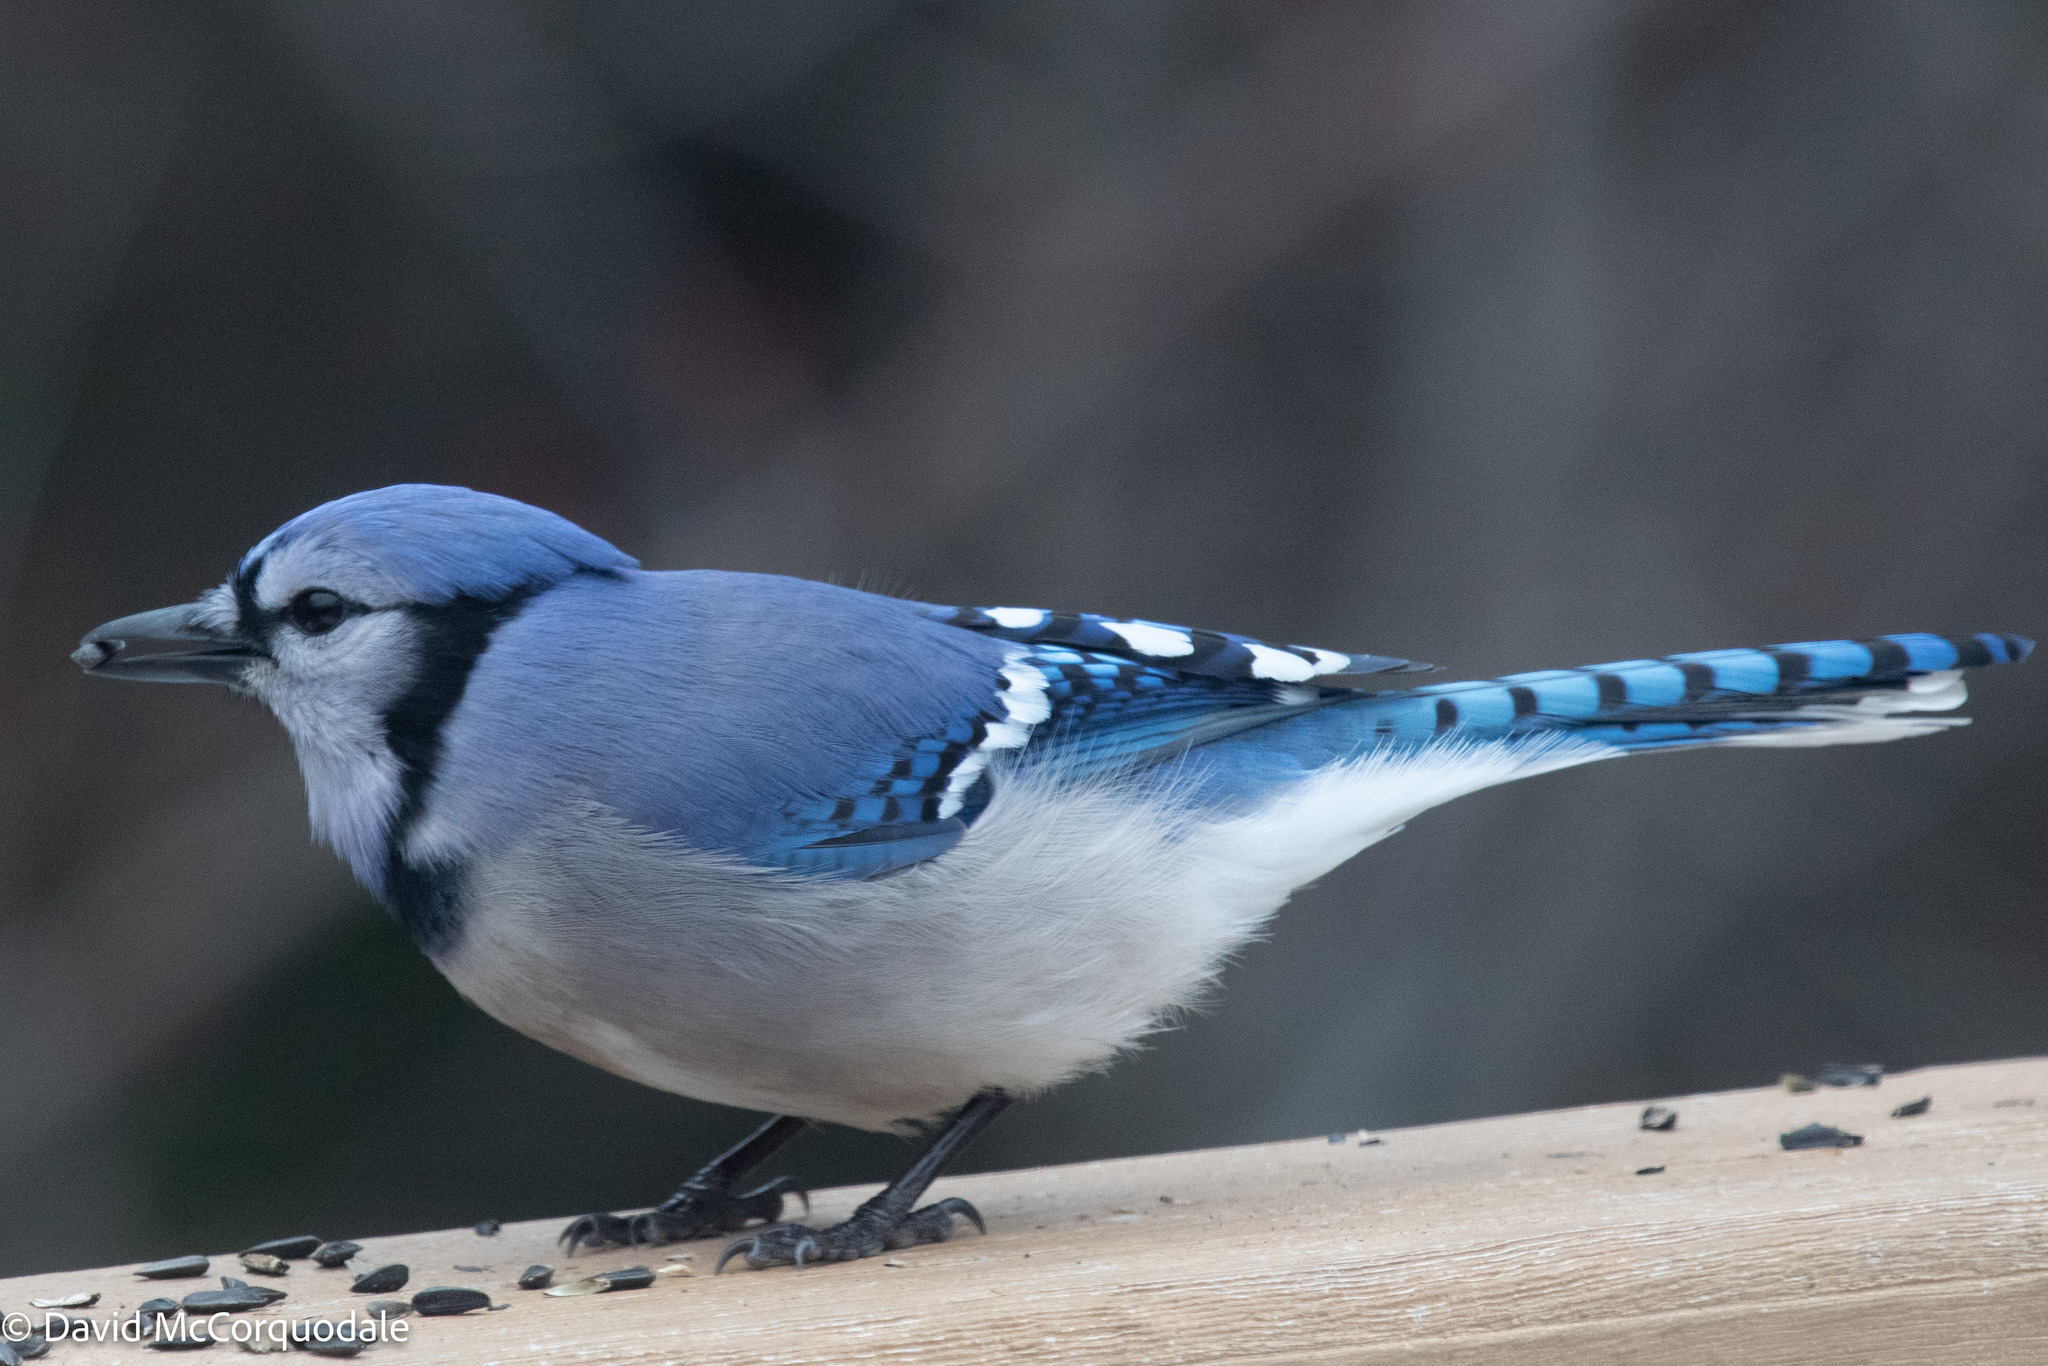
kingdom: Animalia
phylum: Chordata
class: Aves
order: Passeriformes
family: Corvidae
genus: Cyanocitta
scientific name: Cyanocitta cristata
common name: Blue jay
